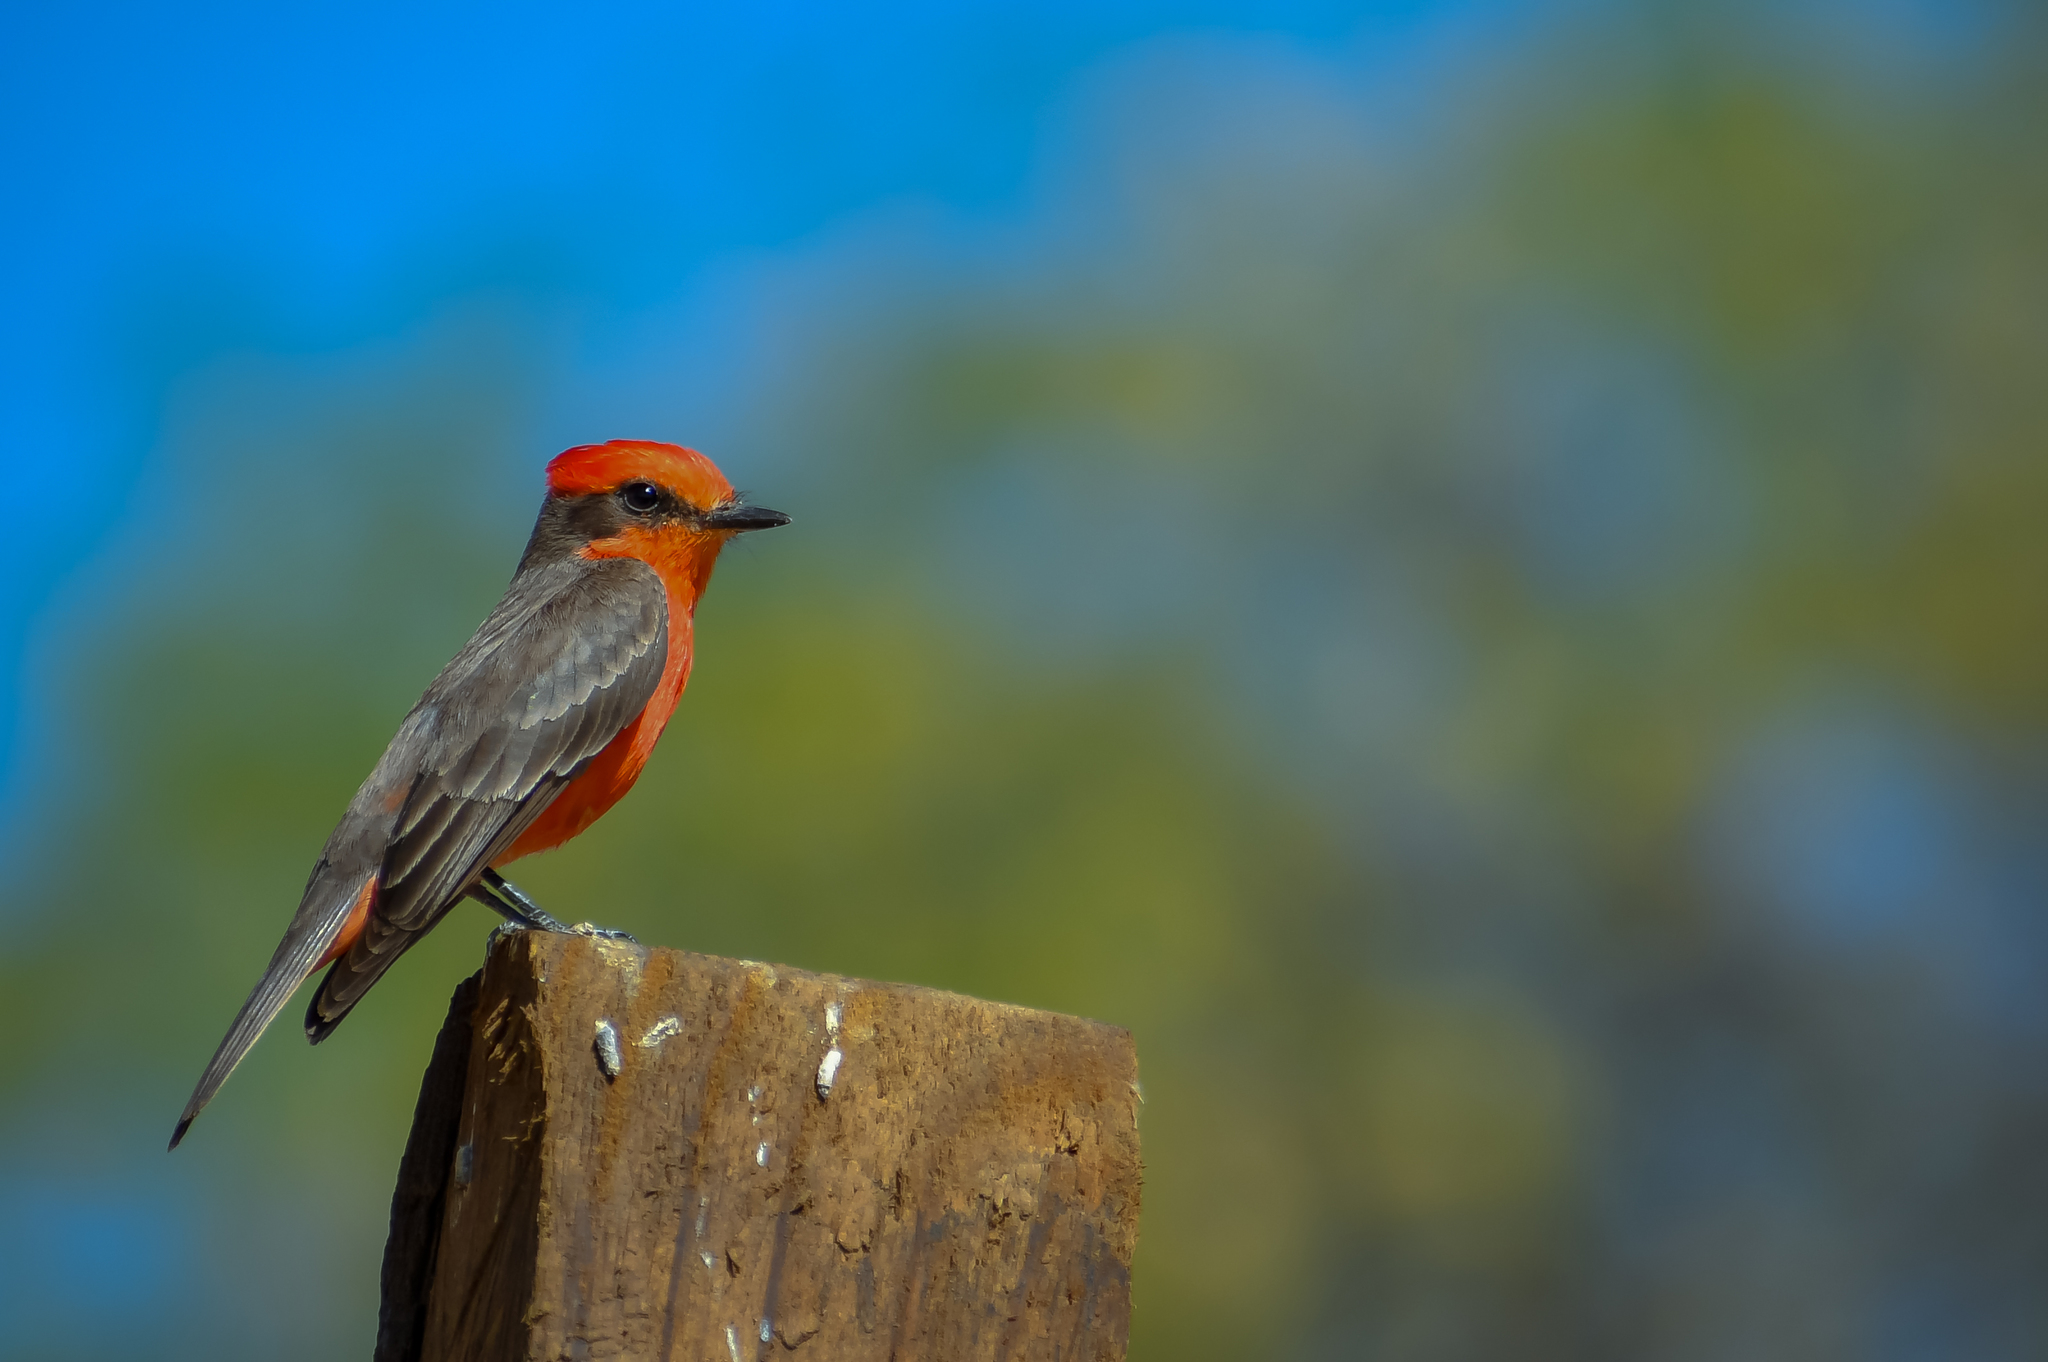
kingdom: Animalia
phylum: Chordata
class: Aves
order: Passeriformes
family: Tyrannidae
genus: Pyrocephalus
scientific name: Pyrocephalus rubinus
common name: Vermilion flycatcher
